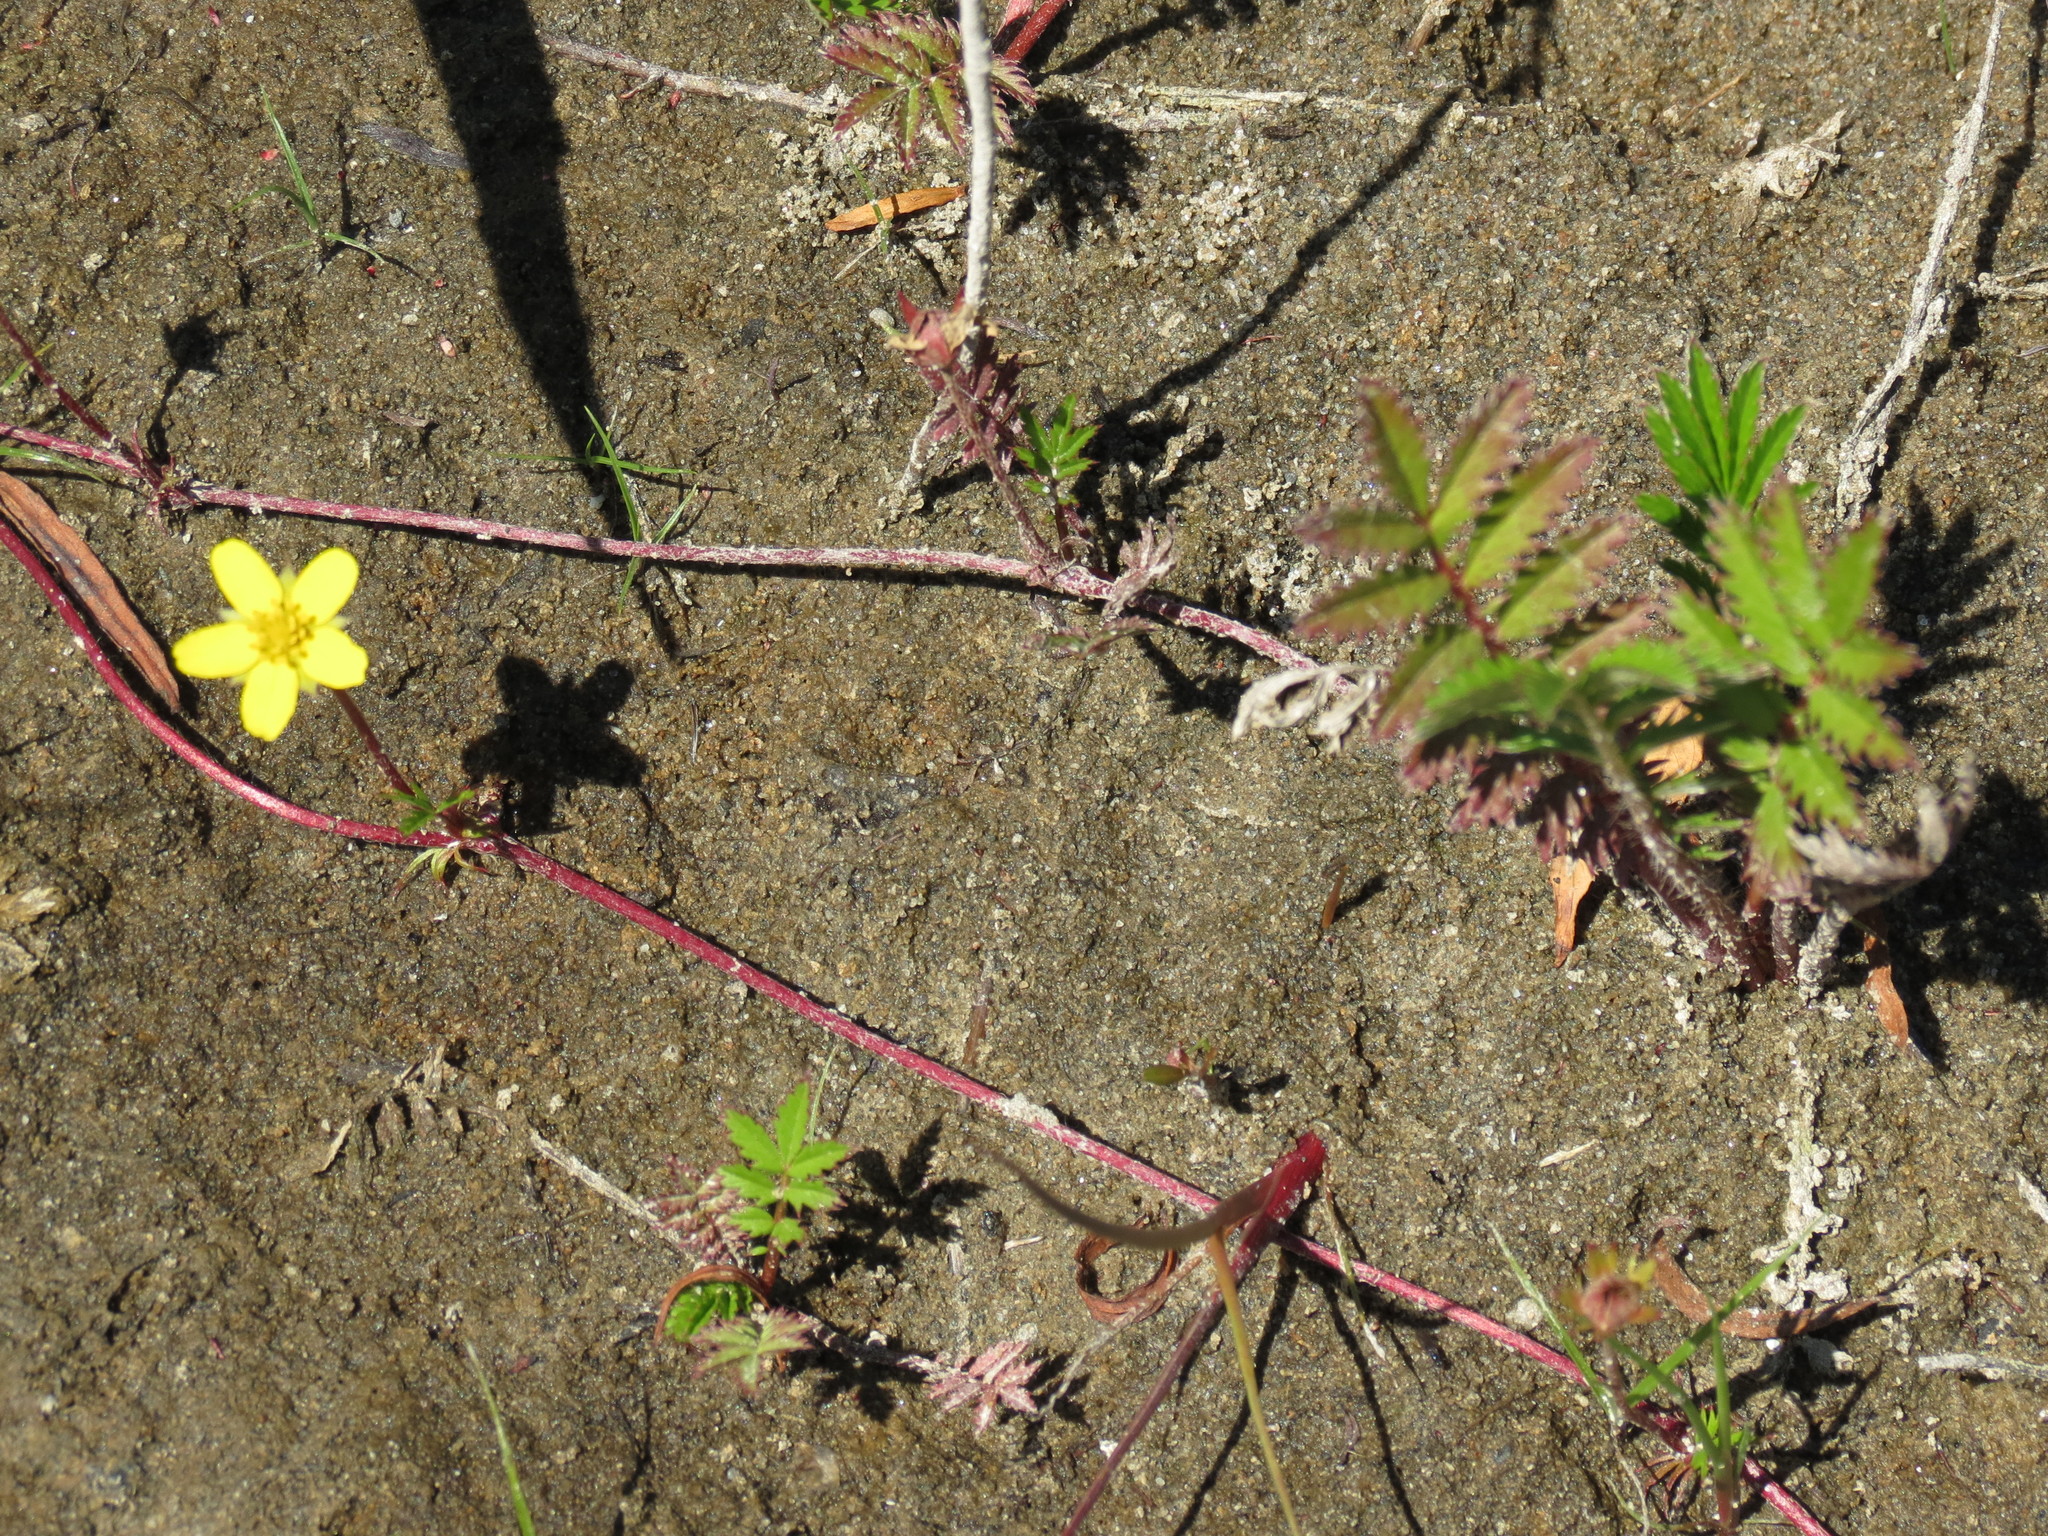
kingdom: Plantae
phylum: Tracheophyta
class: Magnoliopsida
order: Rosales
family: Rosaceae
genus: Argentina
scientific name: Argentina anserina
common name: Common silverweed
